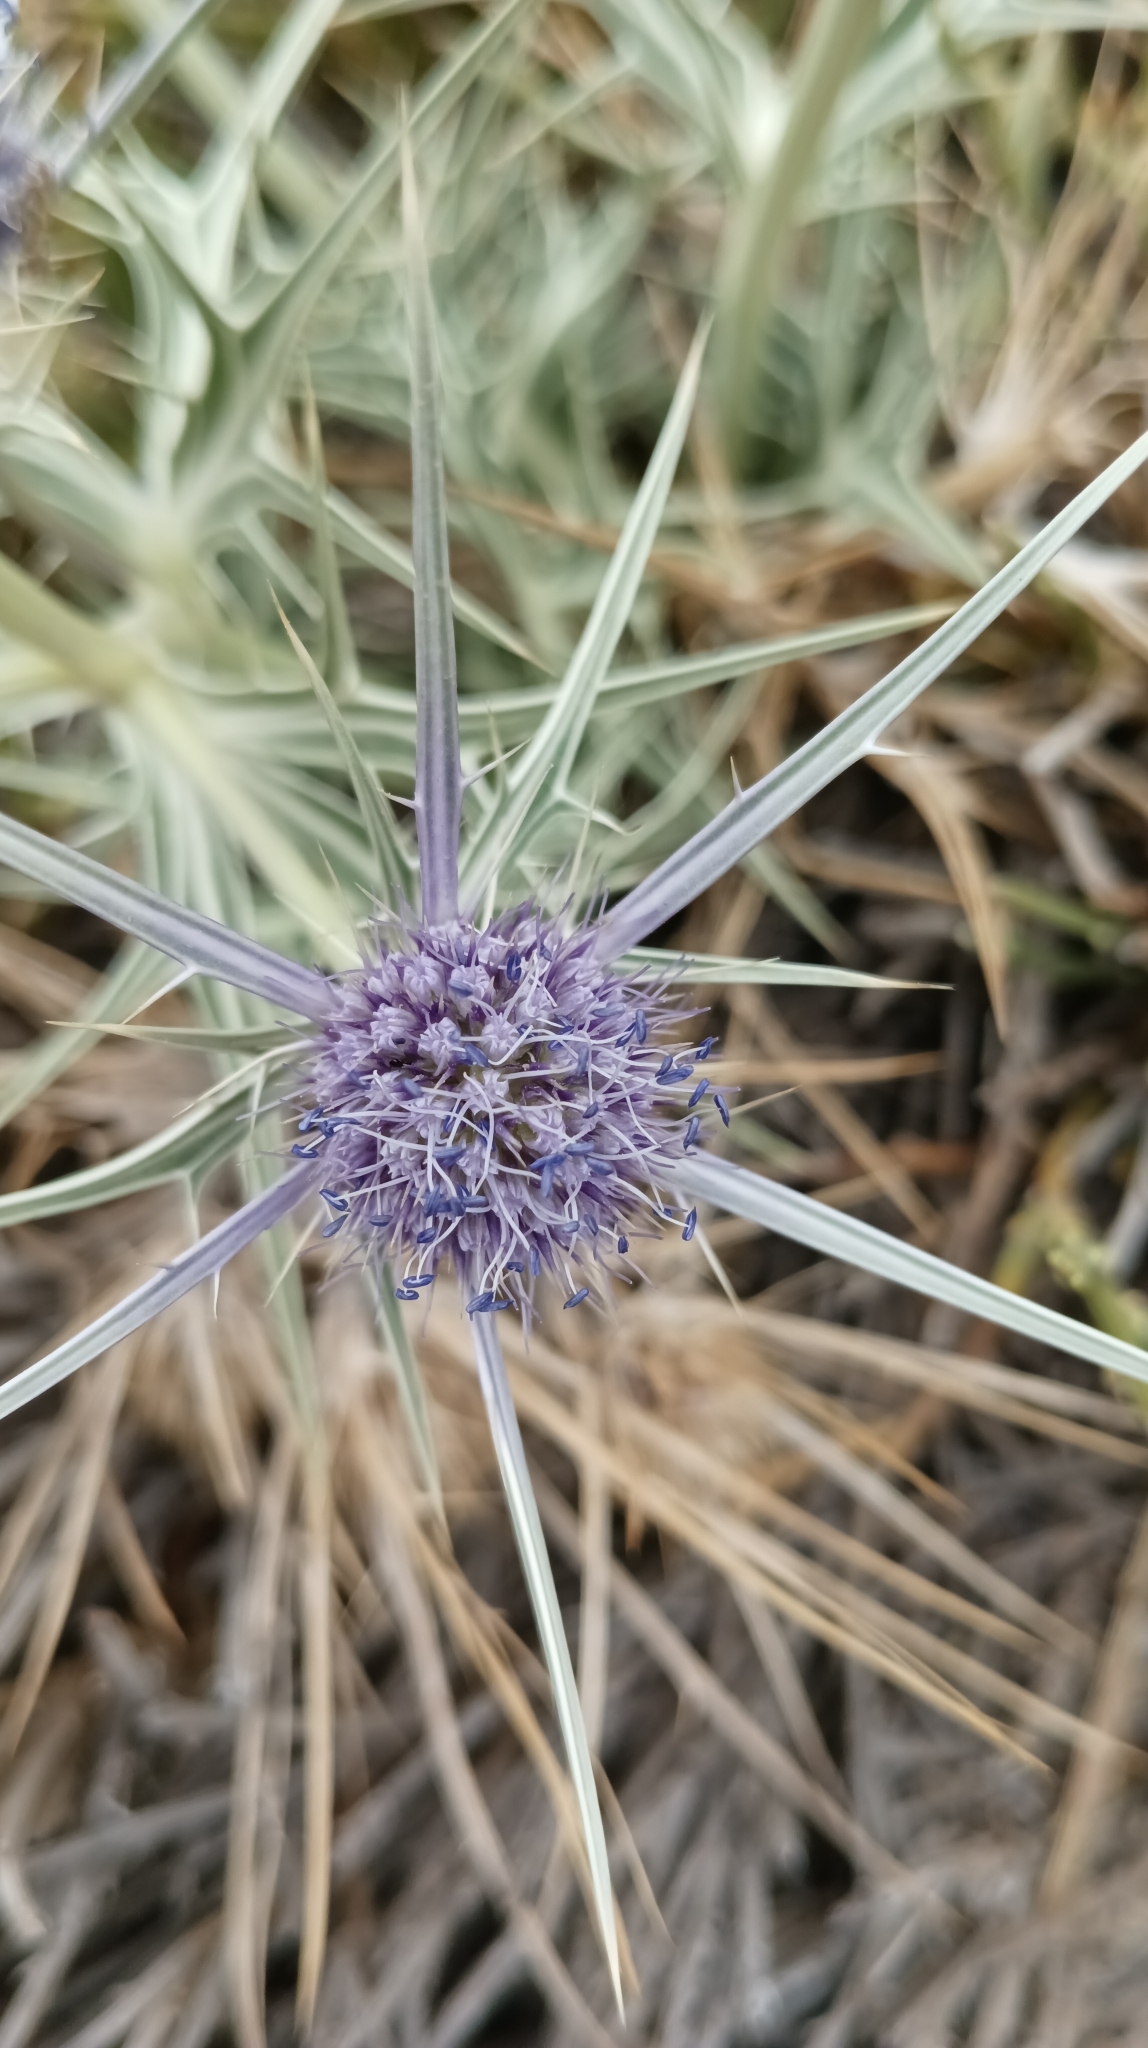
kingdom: Plantae
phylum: Tracheophyta
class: Magnoliopsida
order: Apiales
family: Apiaceae
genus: Eryngium
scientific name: Eryngium glaciale
